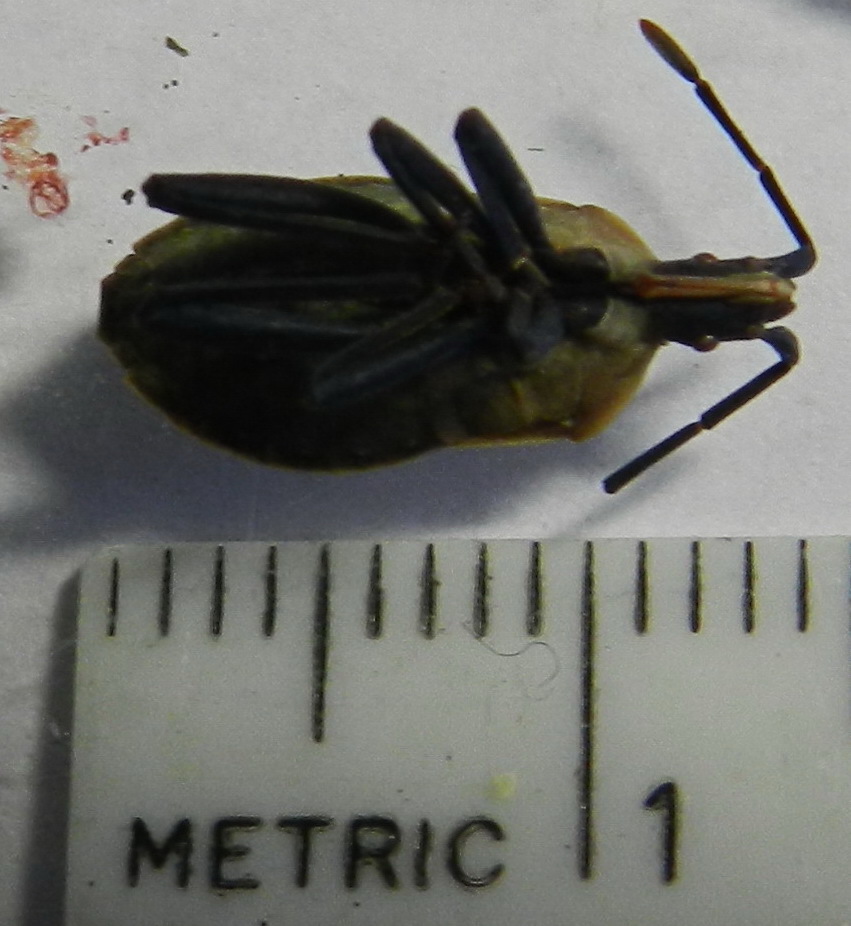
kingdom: Animalia
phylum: Arthropoda
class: Insecta
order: Hemiptera
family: Coreidae
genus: Chelinidea
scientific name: Chelinidea vittiger
